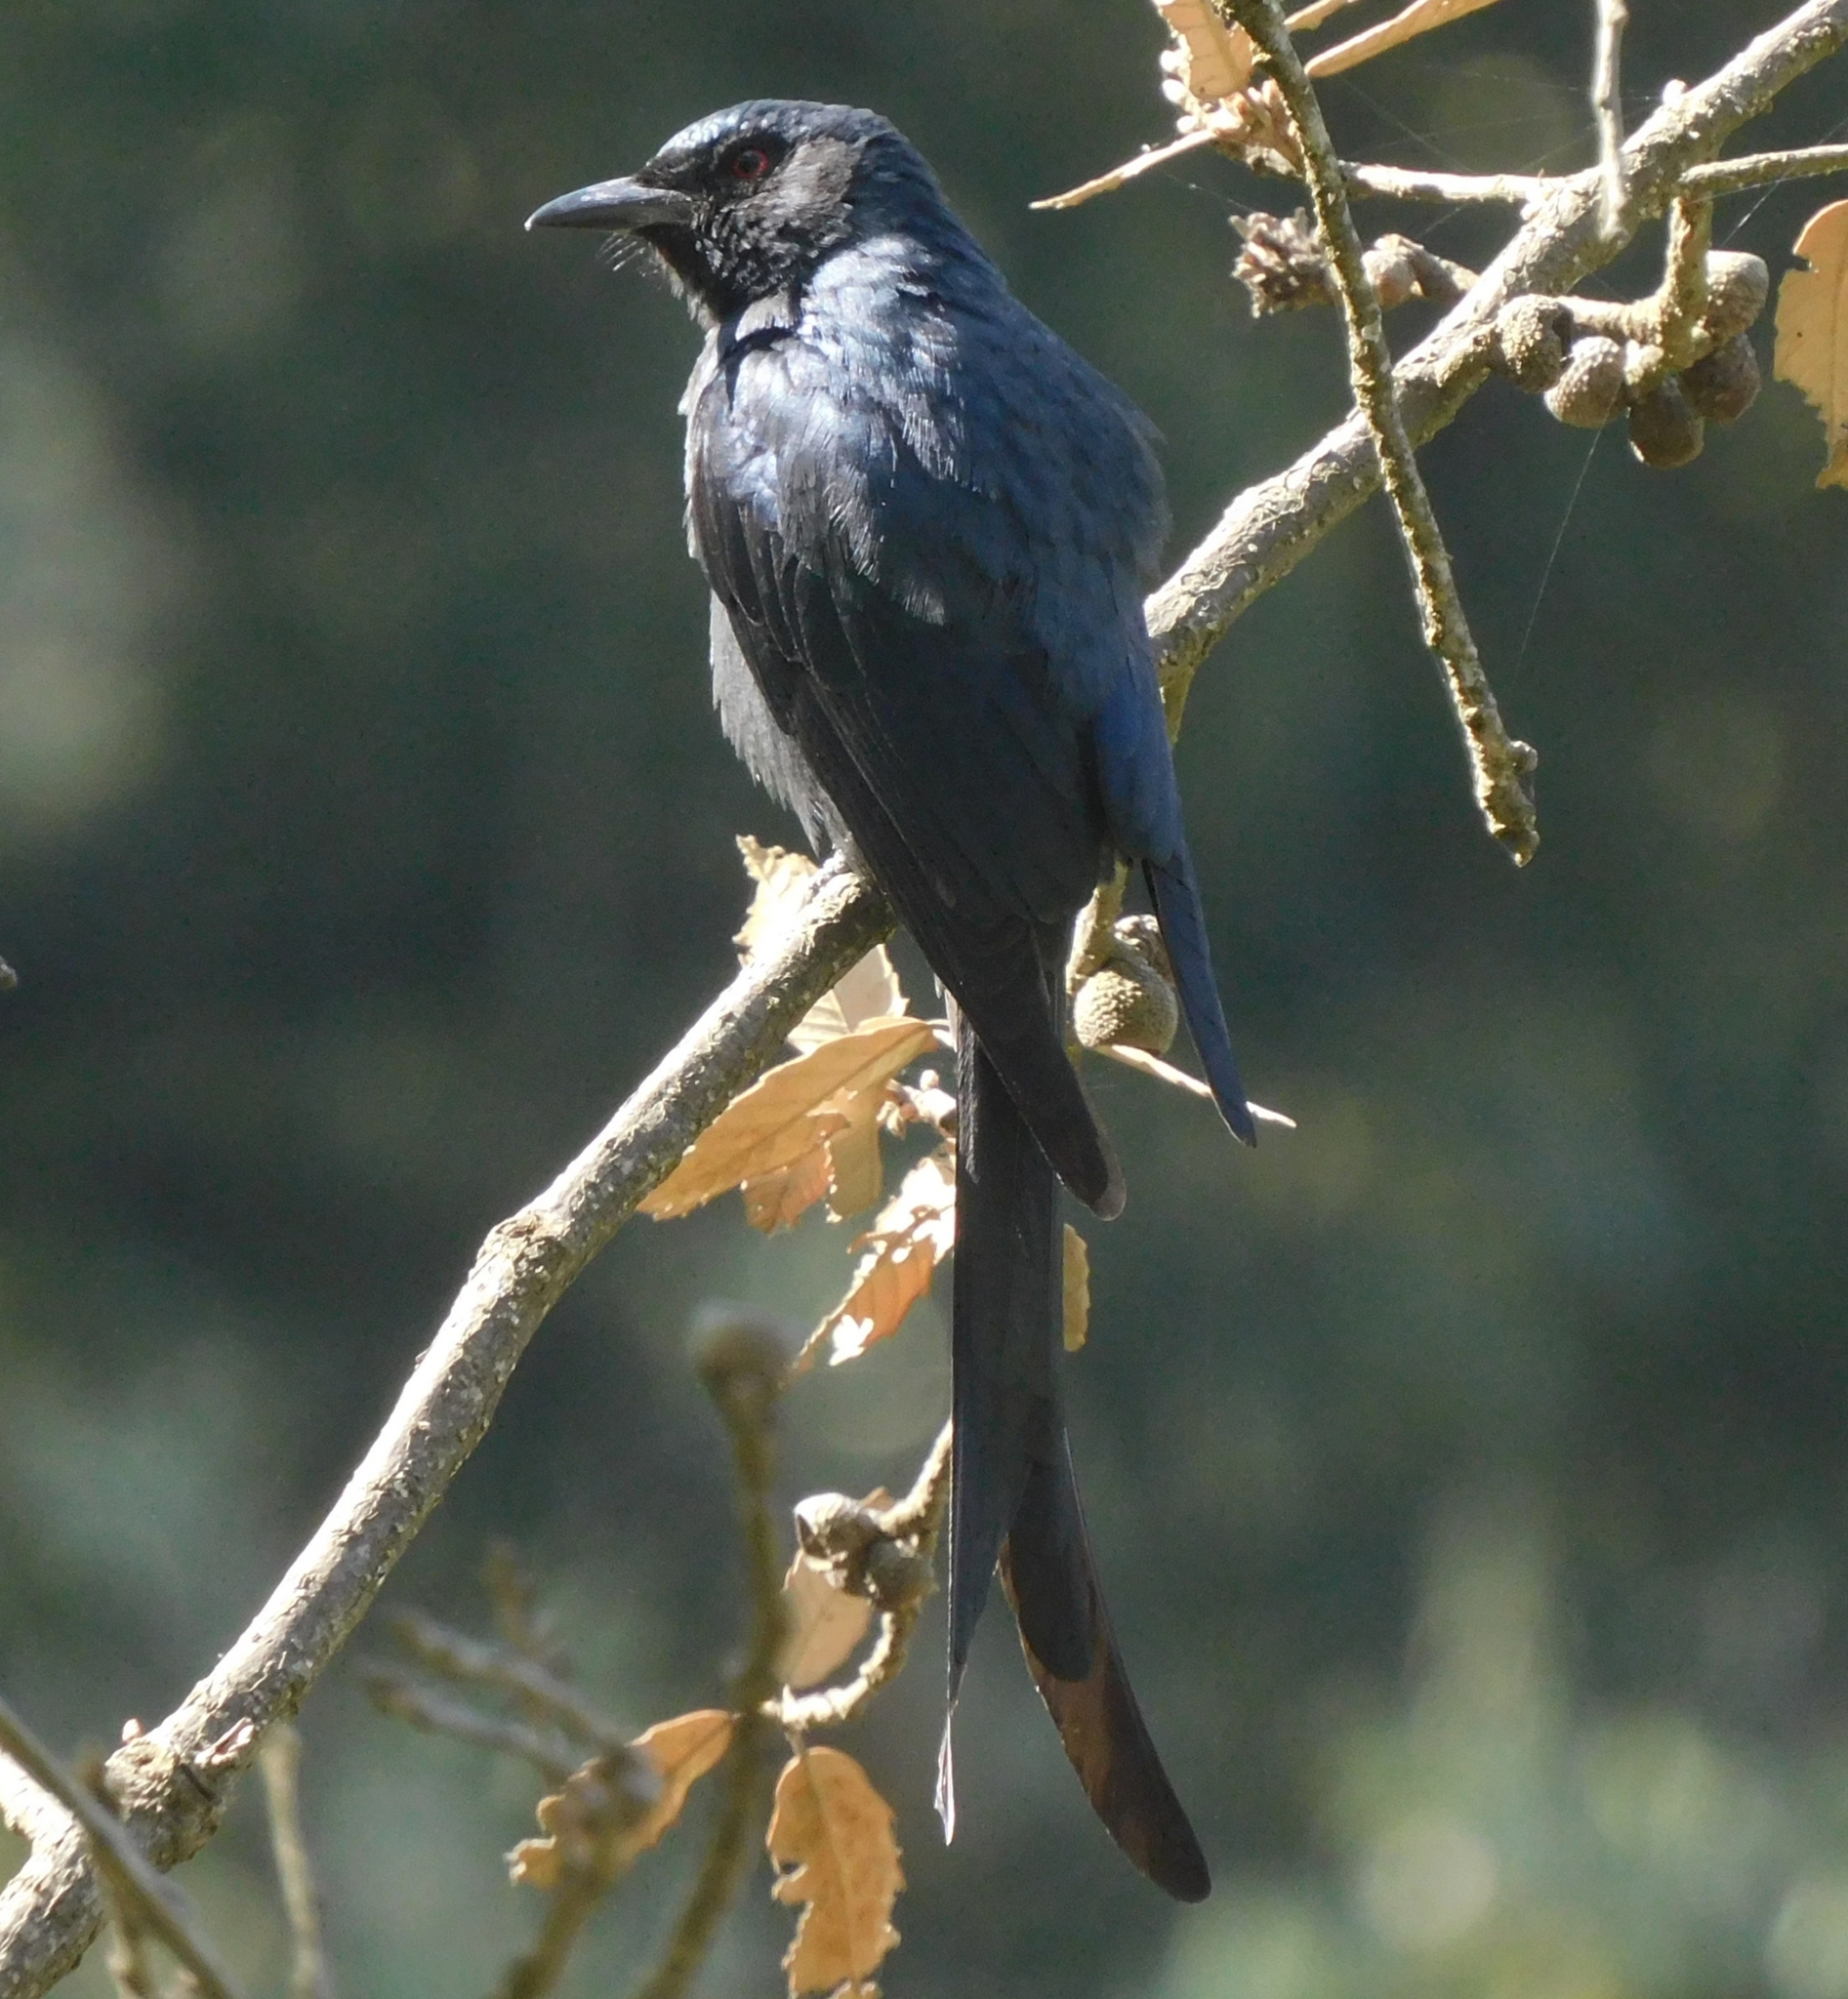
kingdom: Animalia
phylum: Chordata
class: Aves
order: Passeriformes
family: Dicruridae
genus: Dicrurus
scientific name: Dicrurus leucophaeus
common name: Ashy drongo
